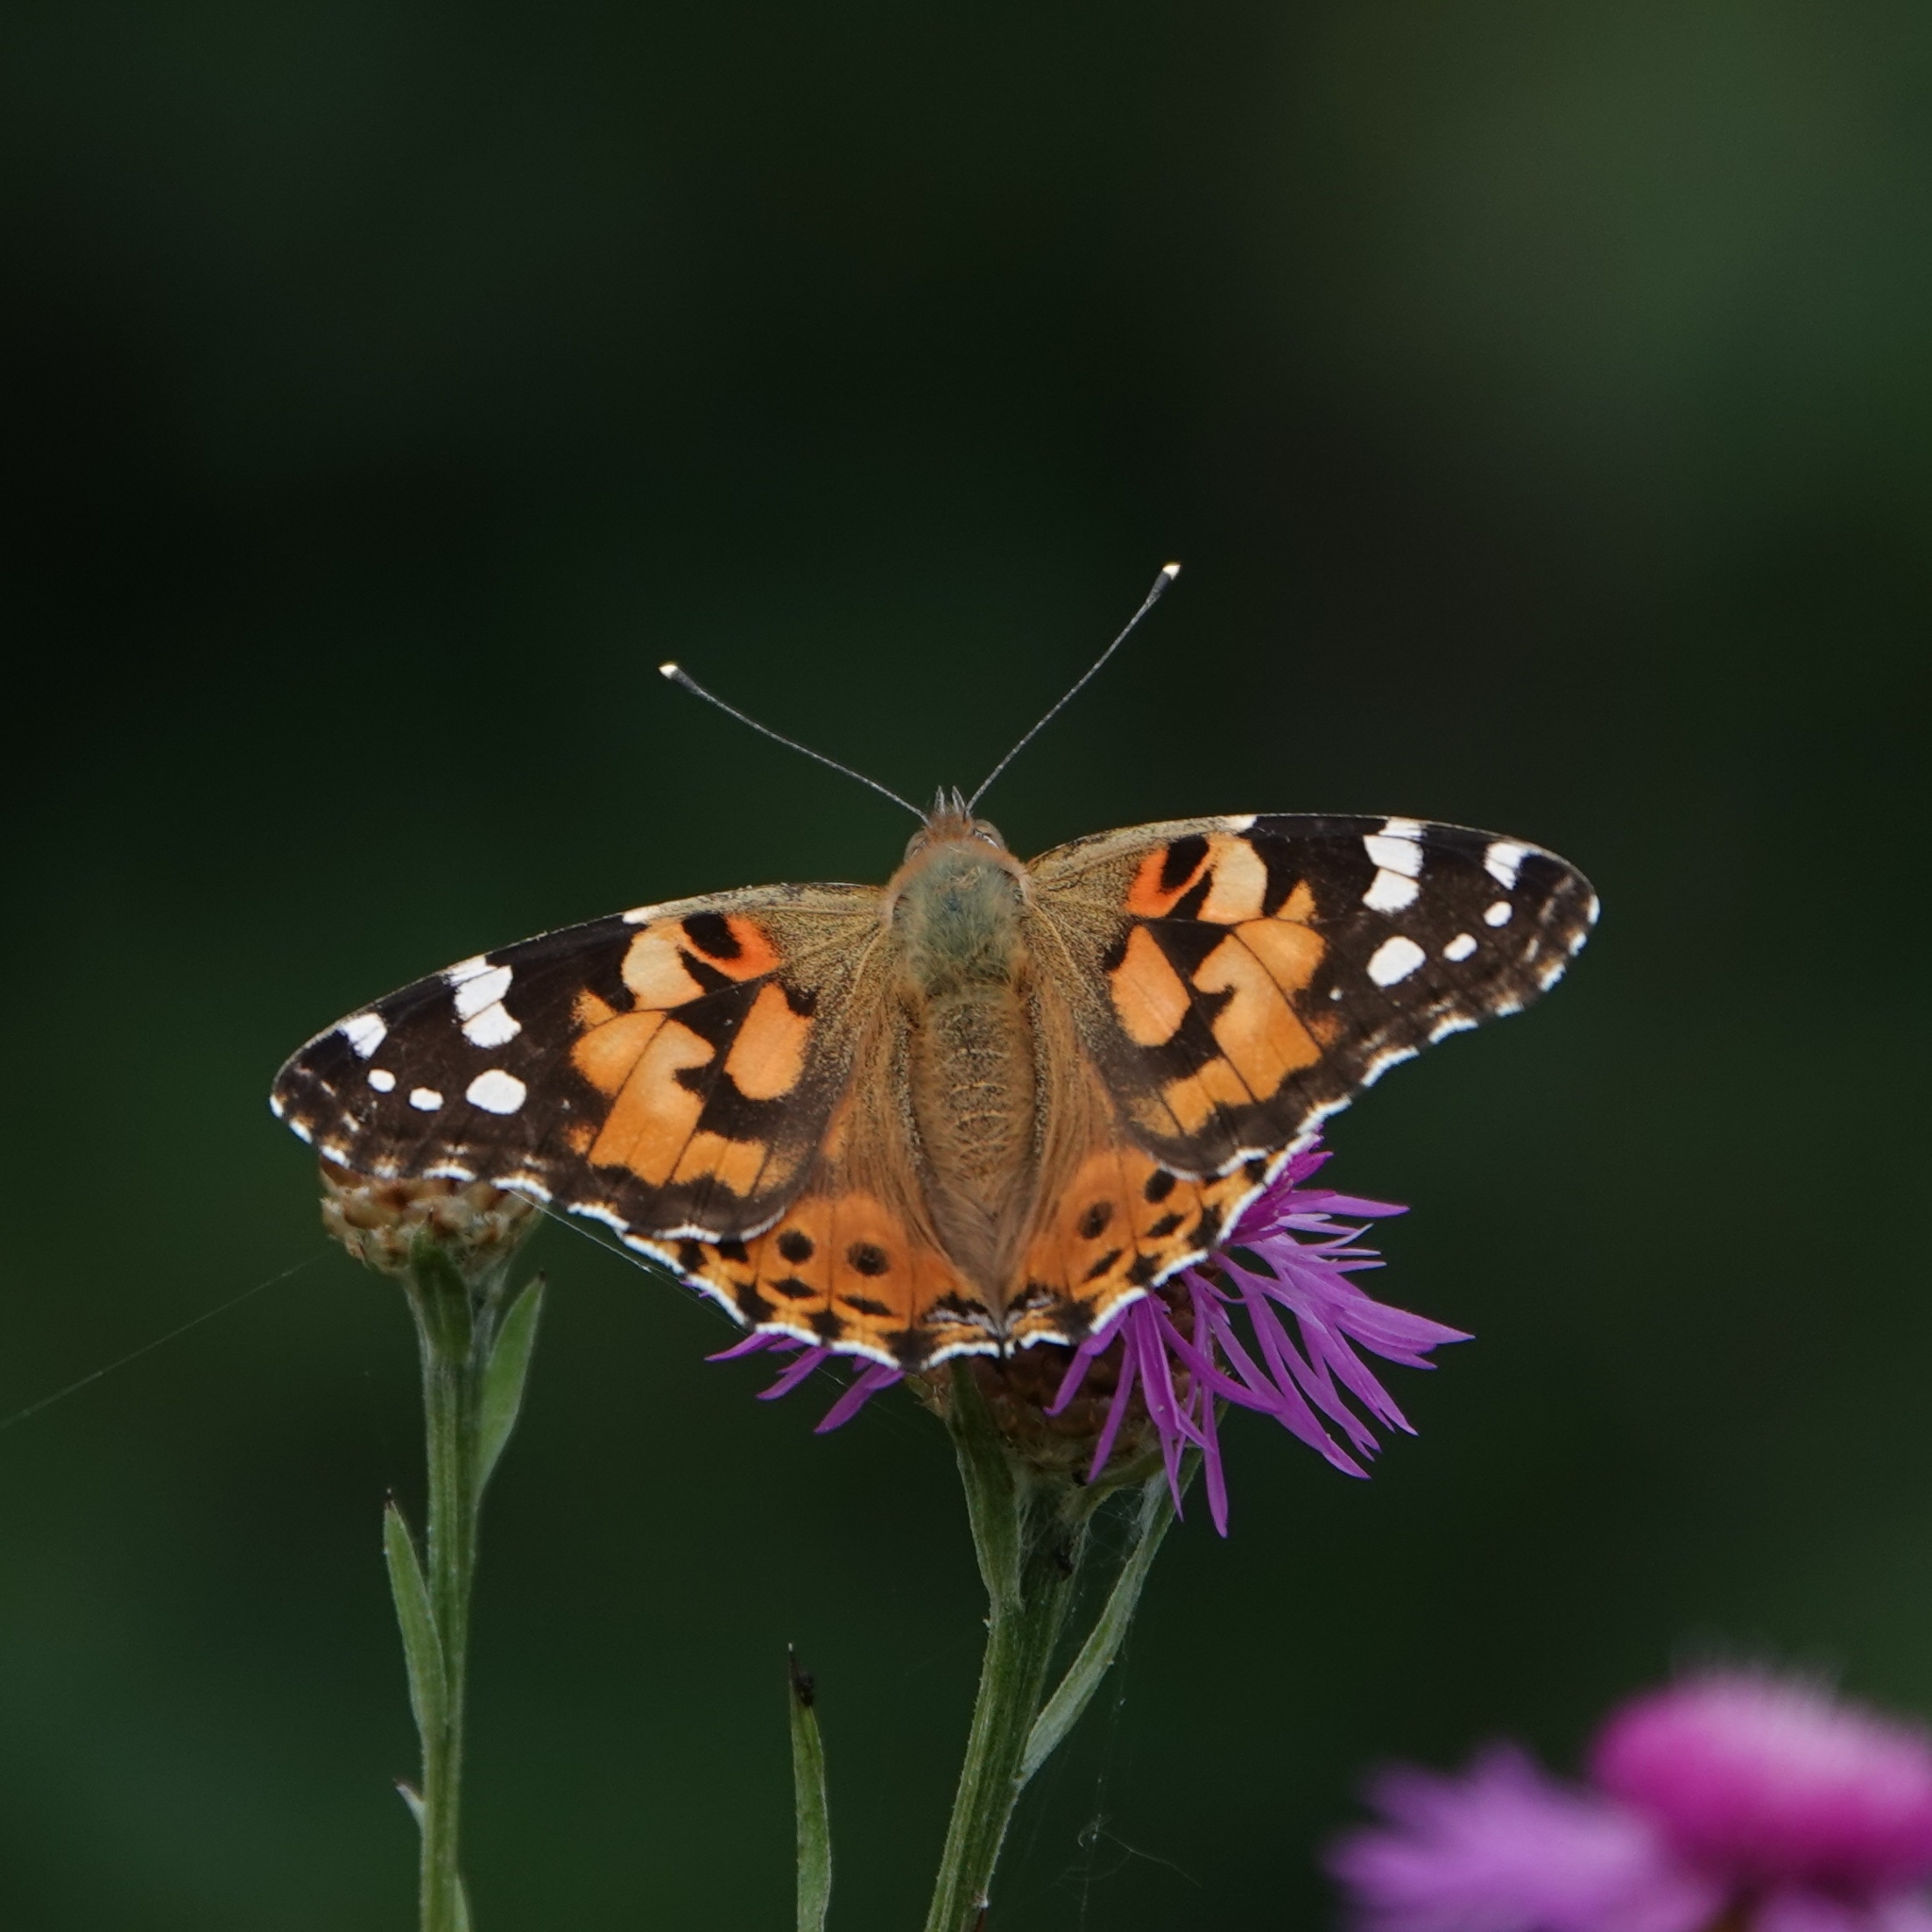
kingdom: Animalia
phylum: Arthropoda
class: Insecta
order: Lepidoptera
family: Nymphalidae
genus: Vanessa
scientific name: Vanessa cardui
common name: Painted lady
